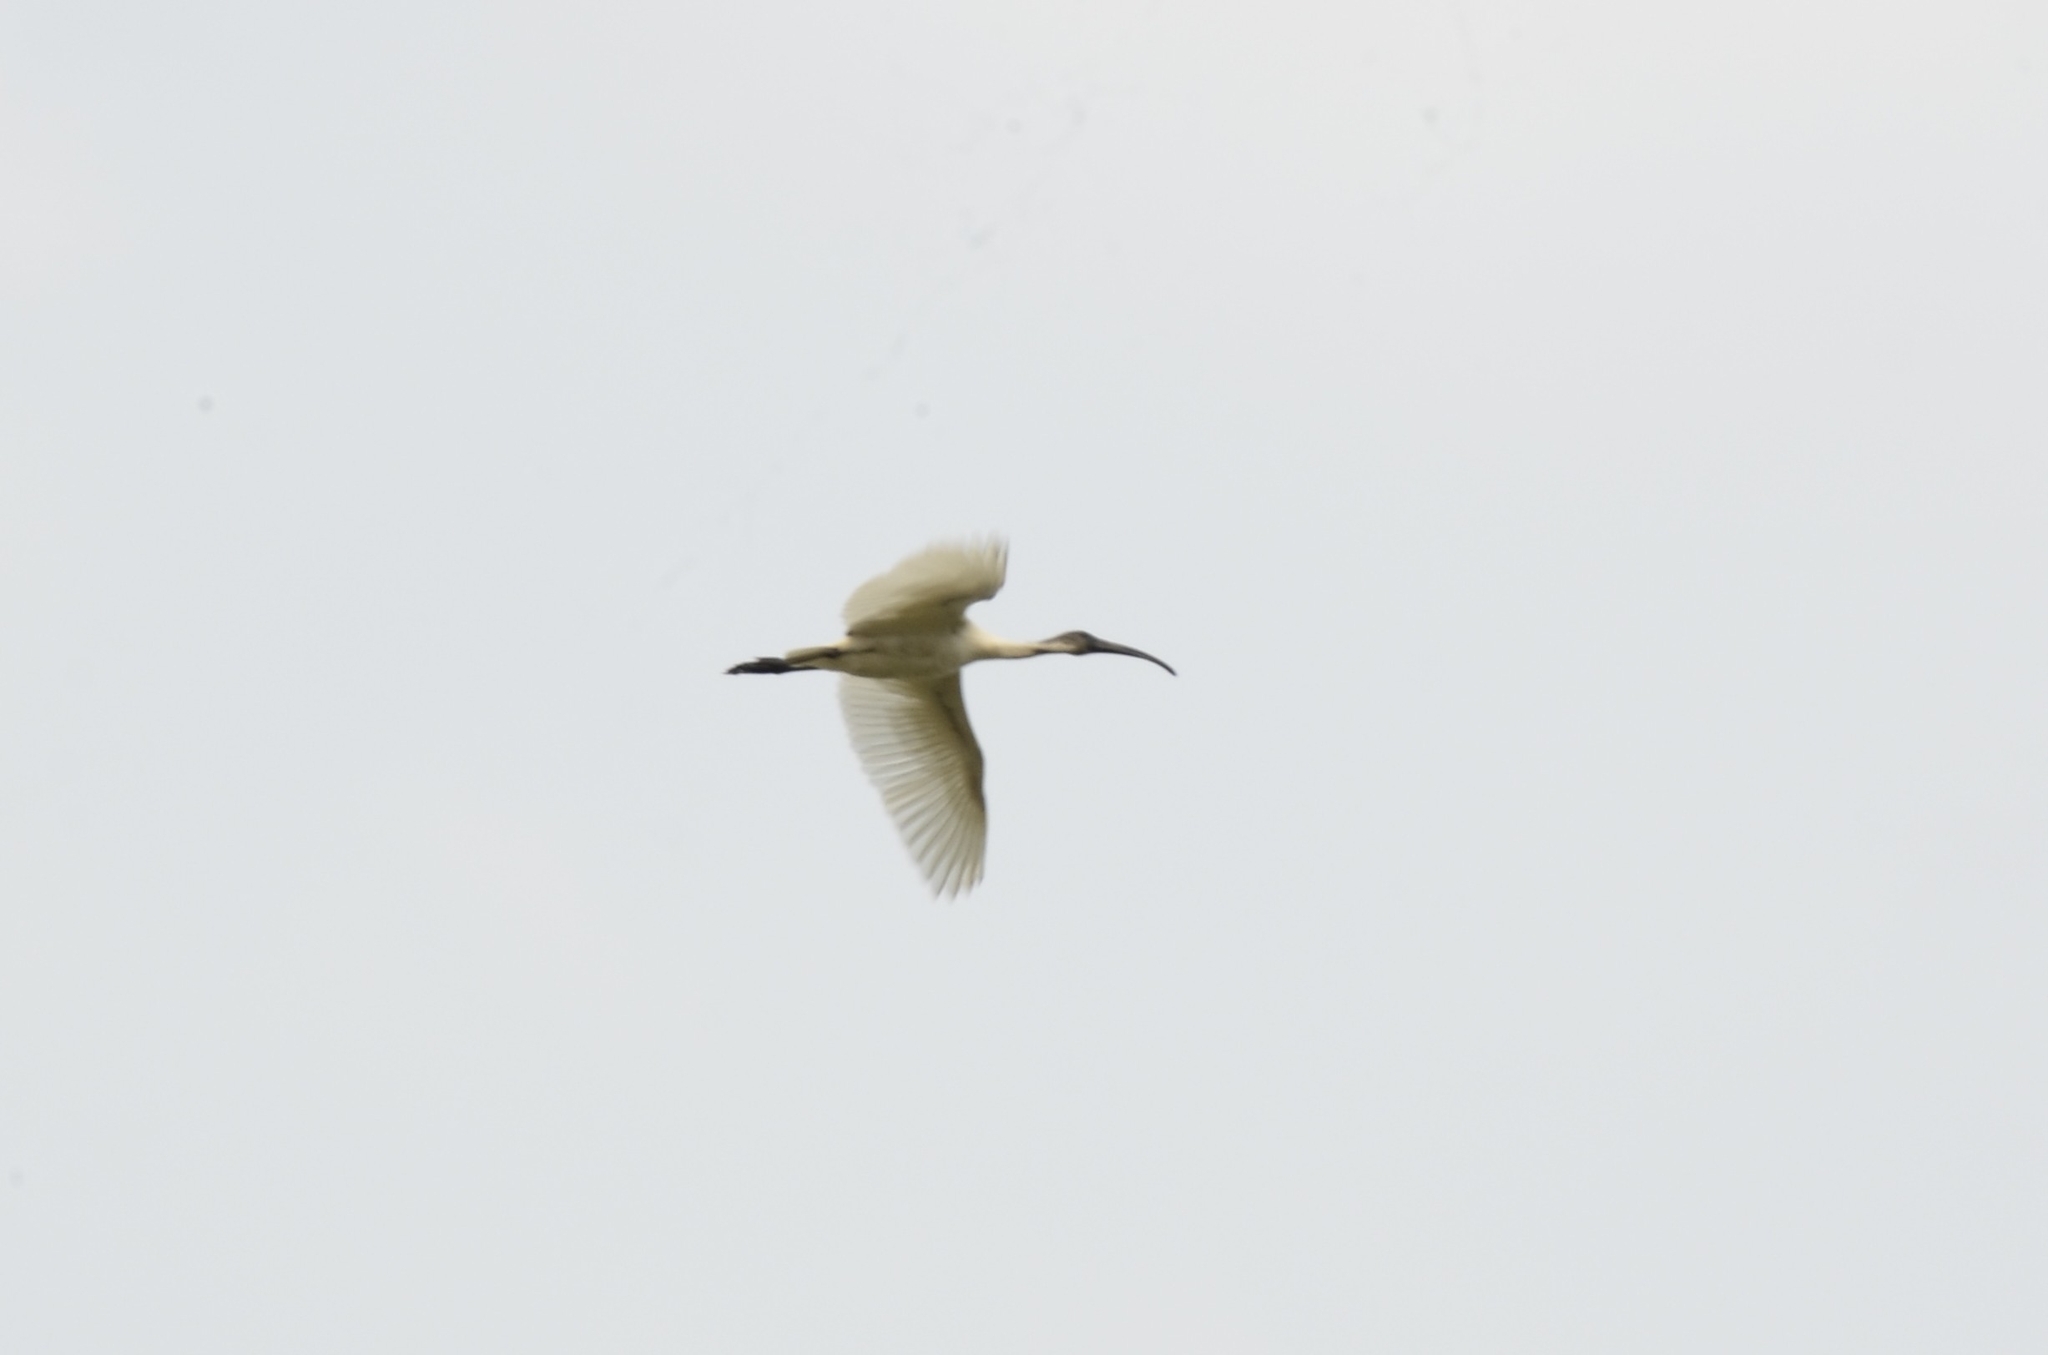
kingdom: Animalia
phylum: Chordata
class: Aves
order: Pelecaniformes
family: Threskiornithidae
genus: Threskiornis
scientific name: Threskiornis melanocephalus
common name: Black-headed ibis
